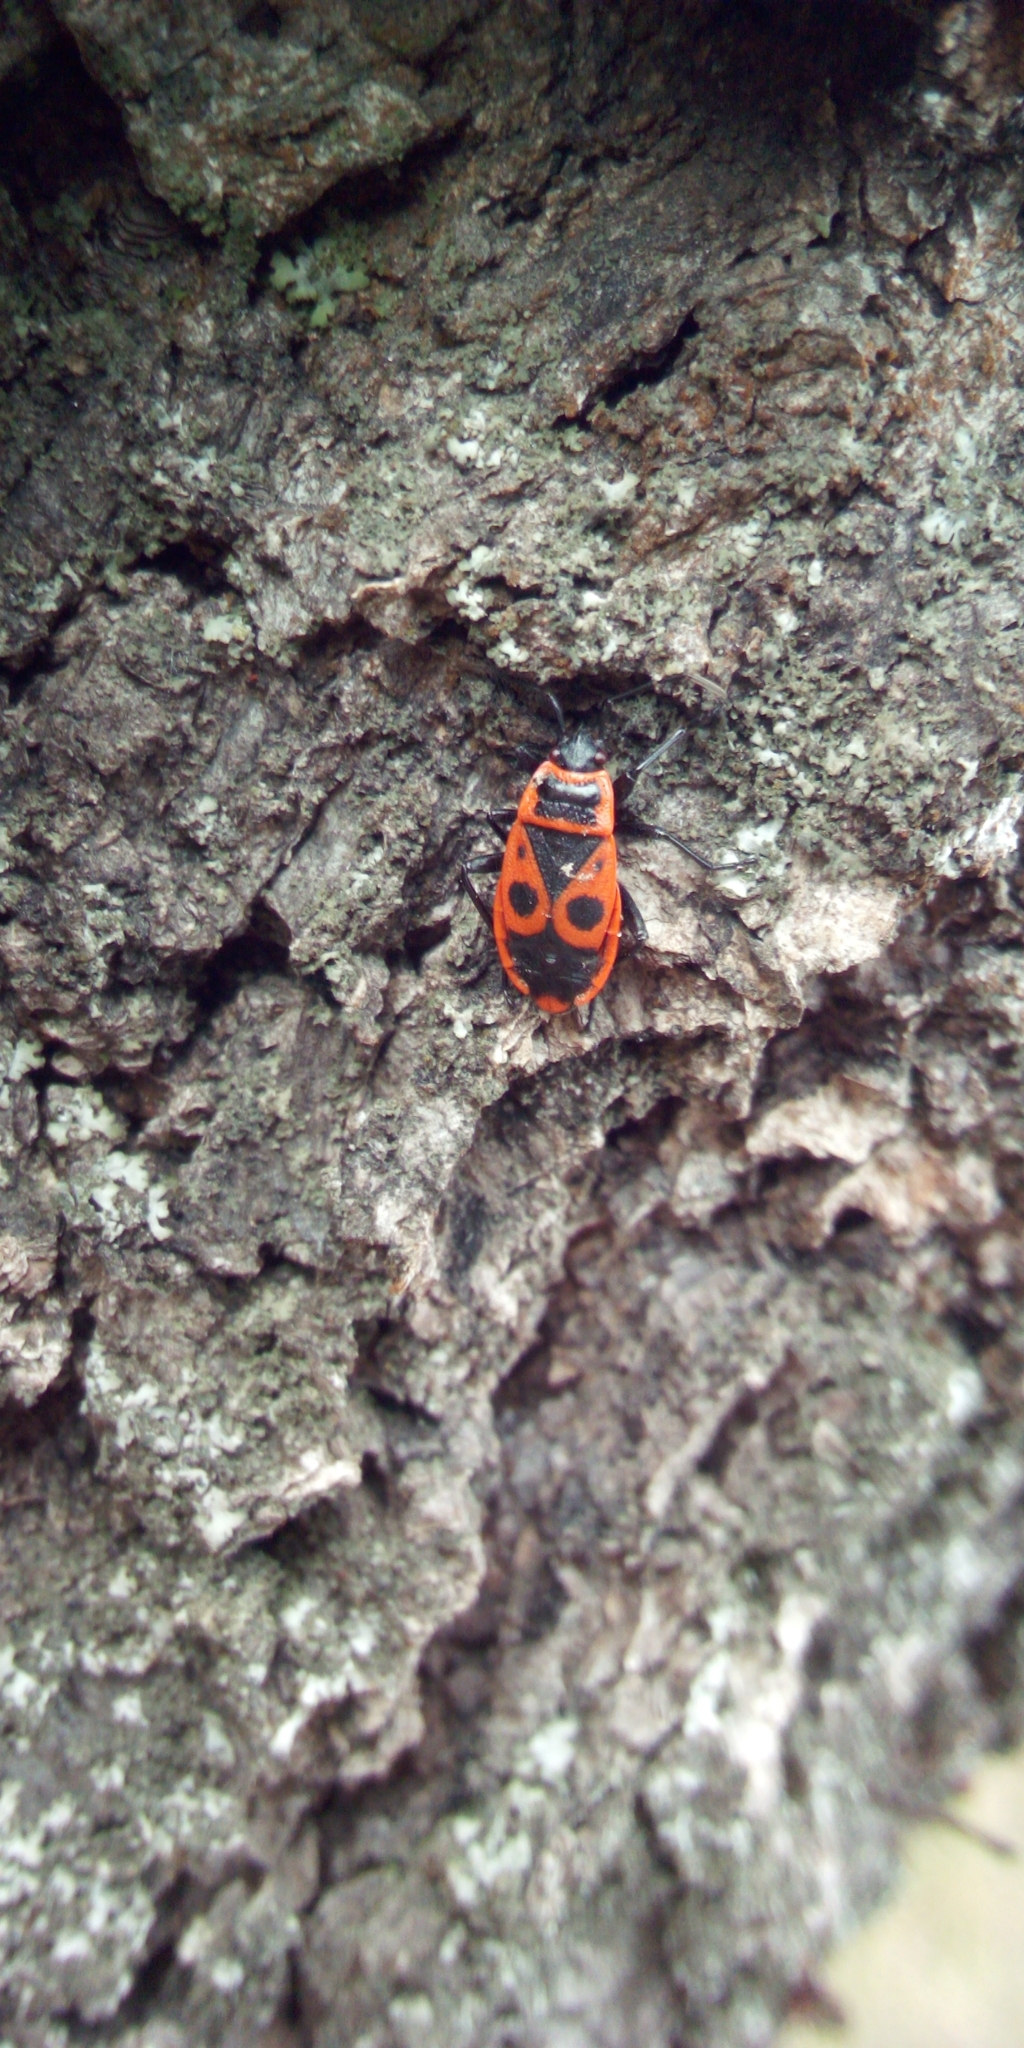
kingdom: Animalia
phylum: Arthropoda
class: Insecta
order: Hemiptera
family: Pyrrhocoridae
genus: Pyrrhocoris
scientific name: Pyrrhocoris apterus
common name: Firebug
